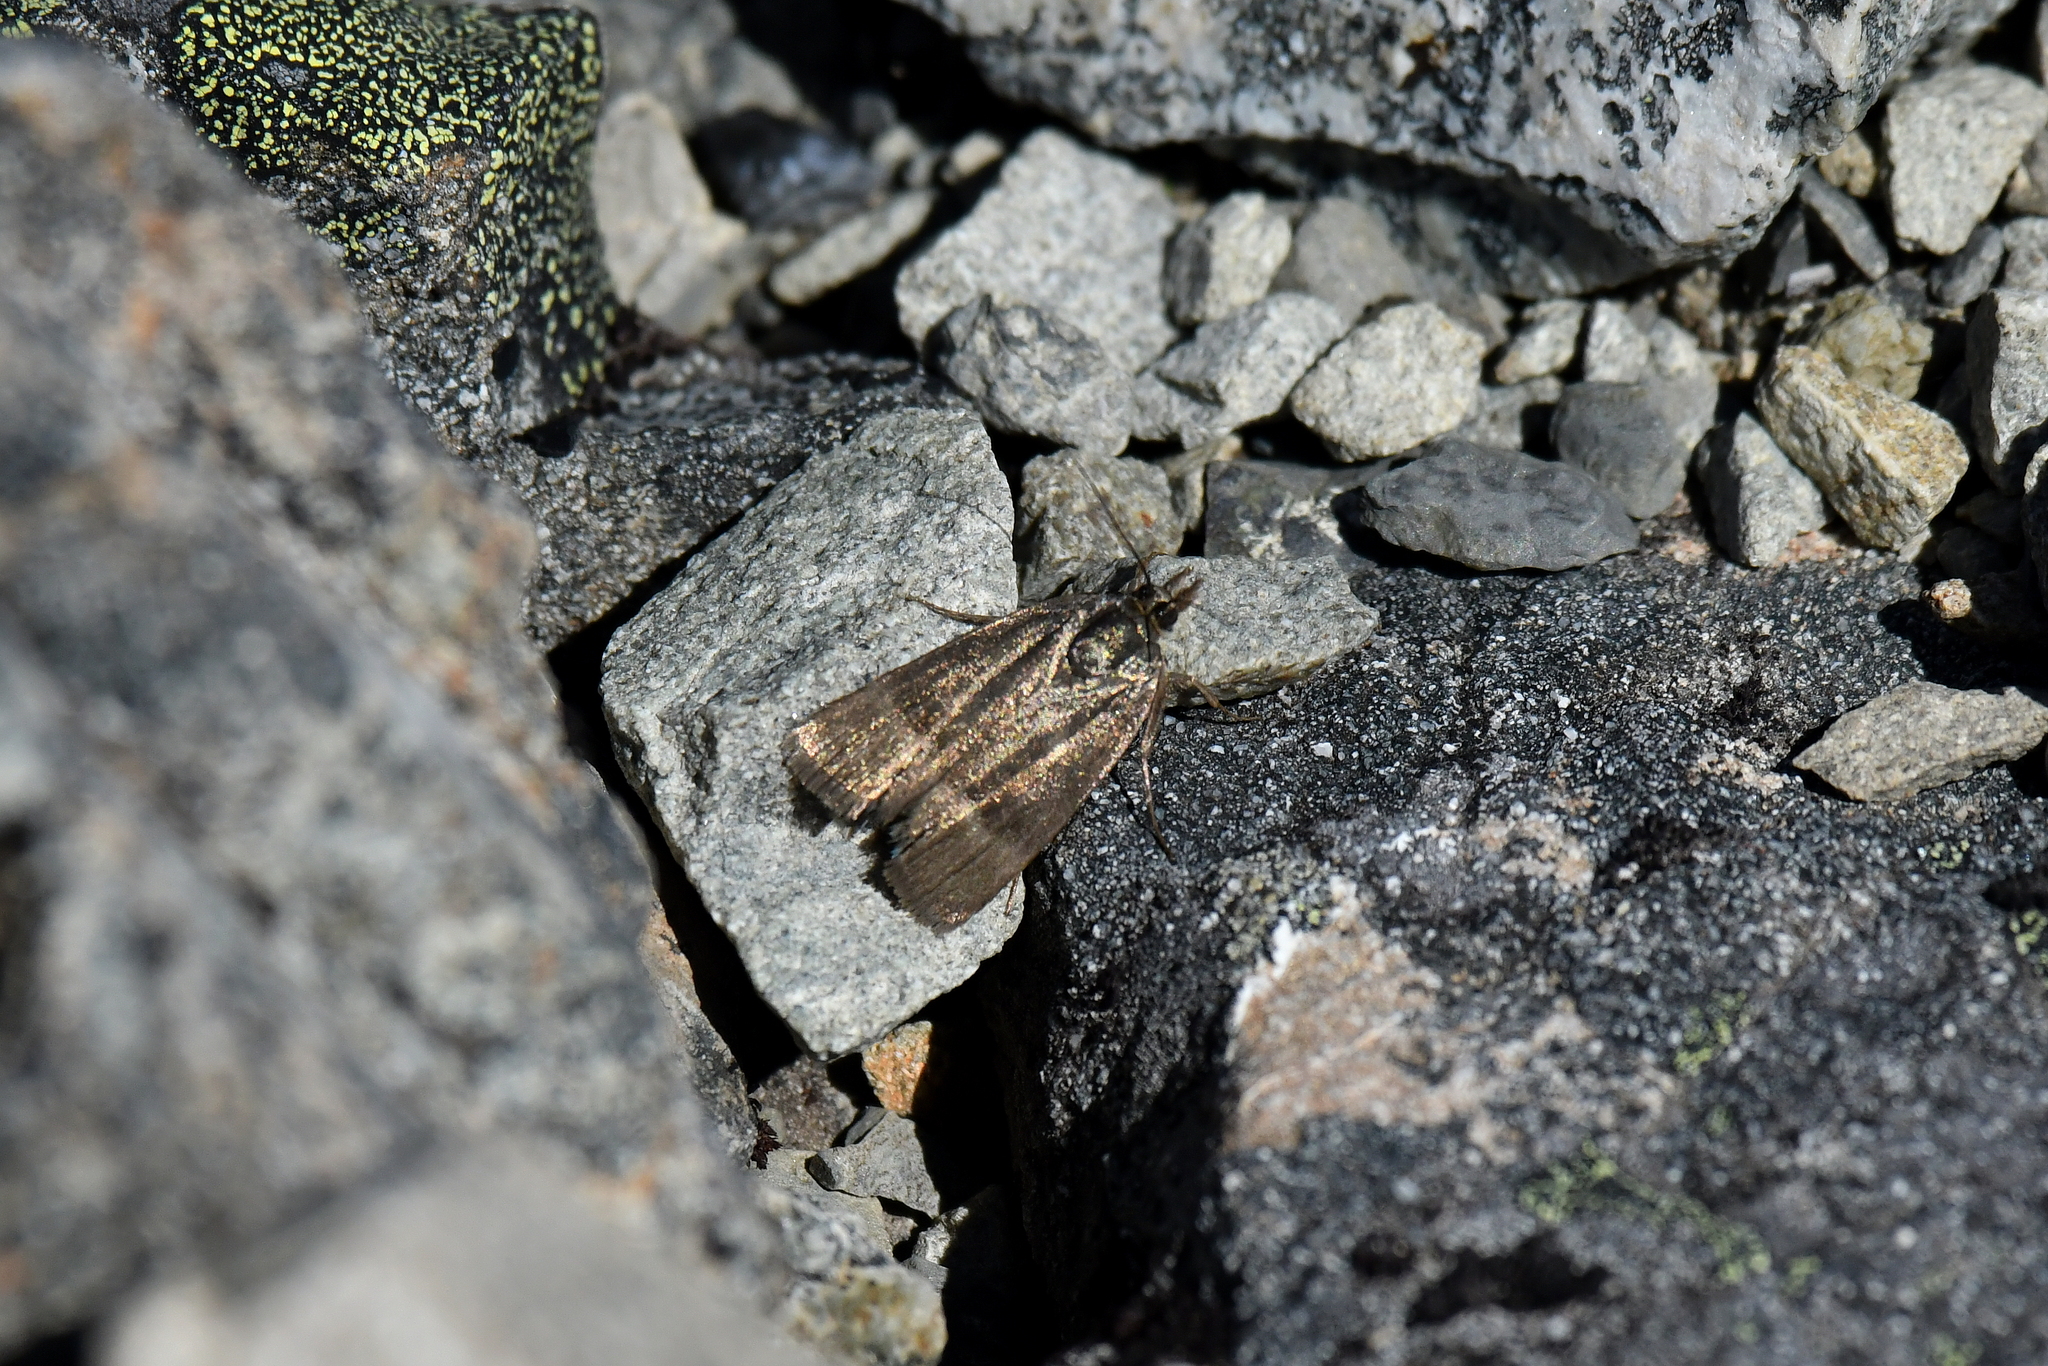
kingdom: Animalia
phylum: Arthropoda
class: Insecta
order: Lepidoptera
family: Crambidae
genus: Orocrambus
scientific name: Orocrambus melampetrus
